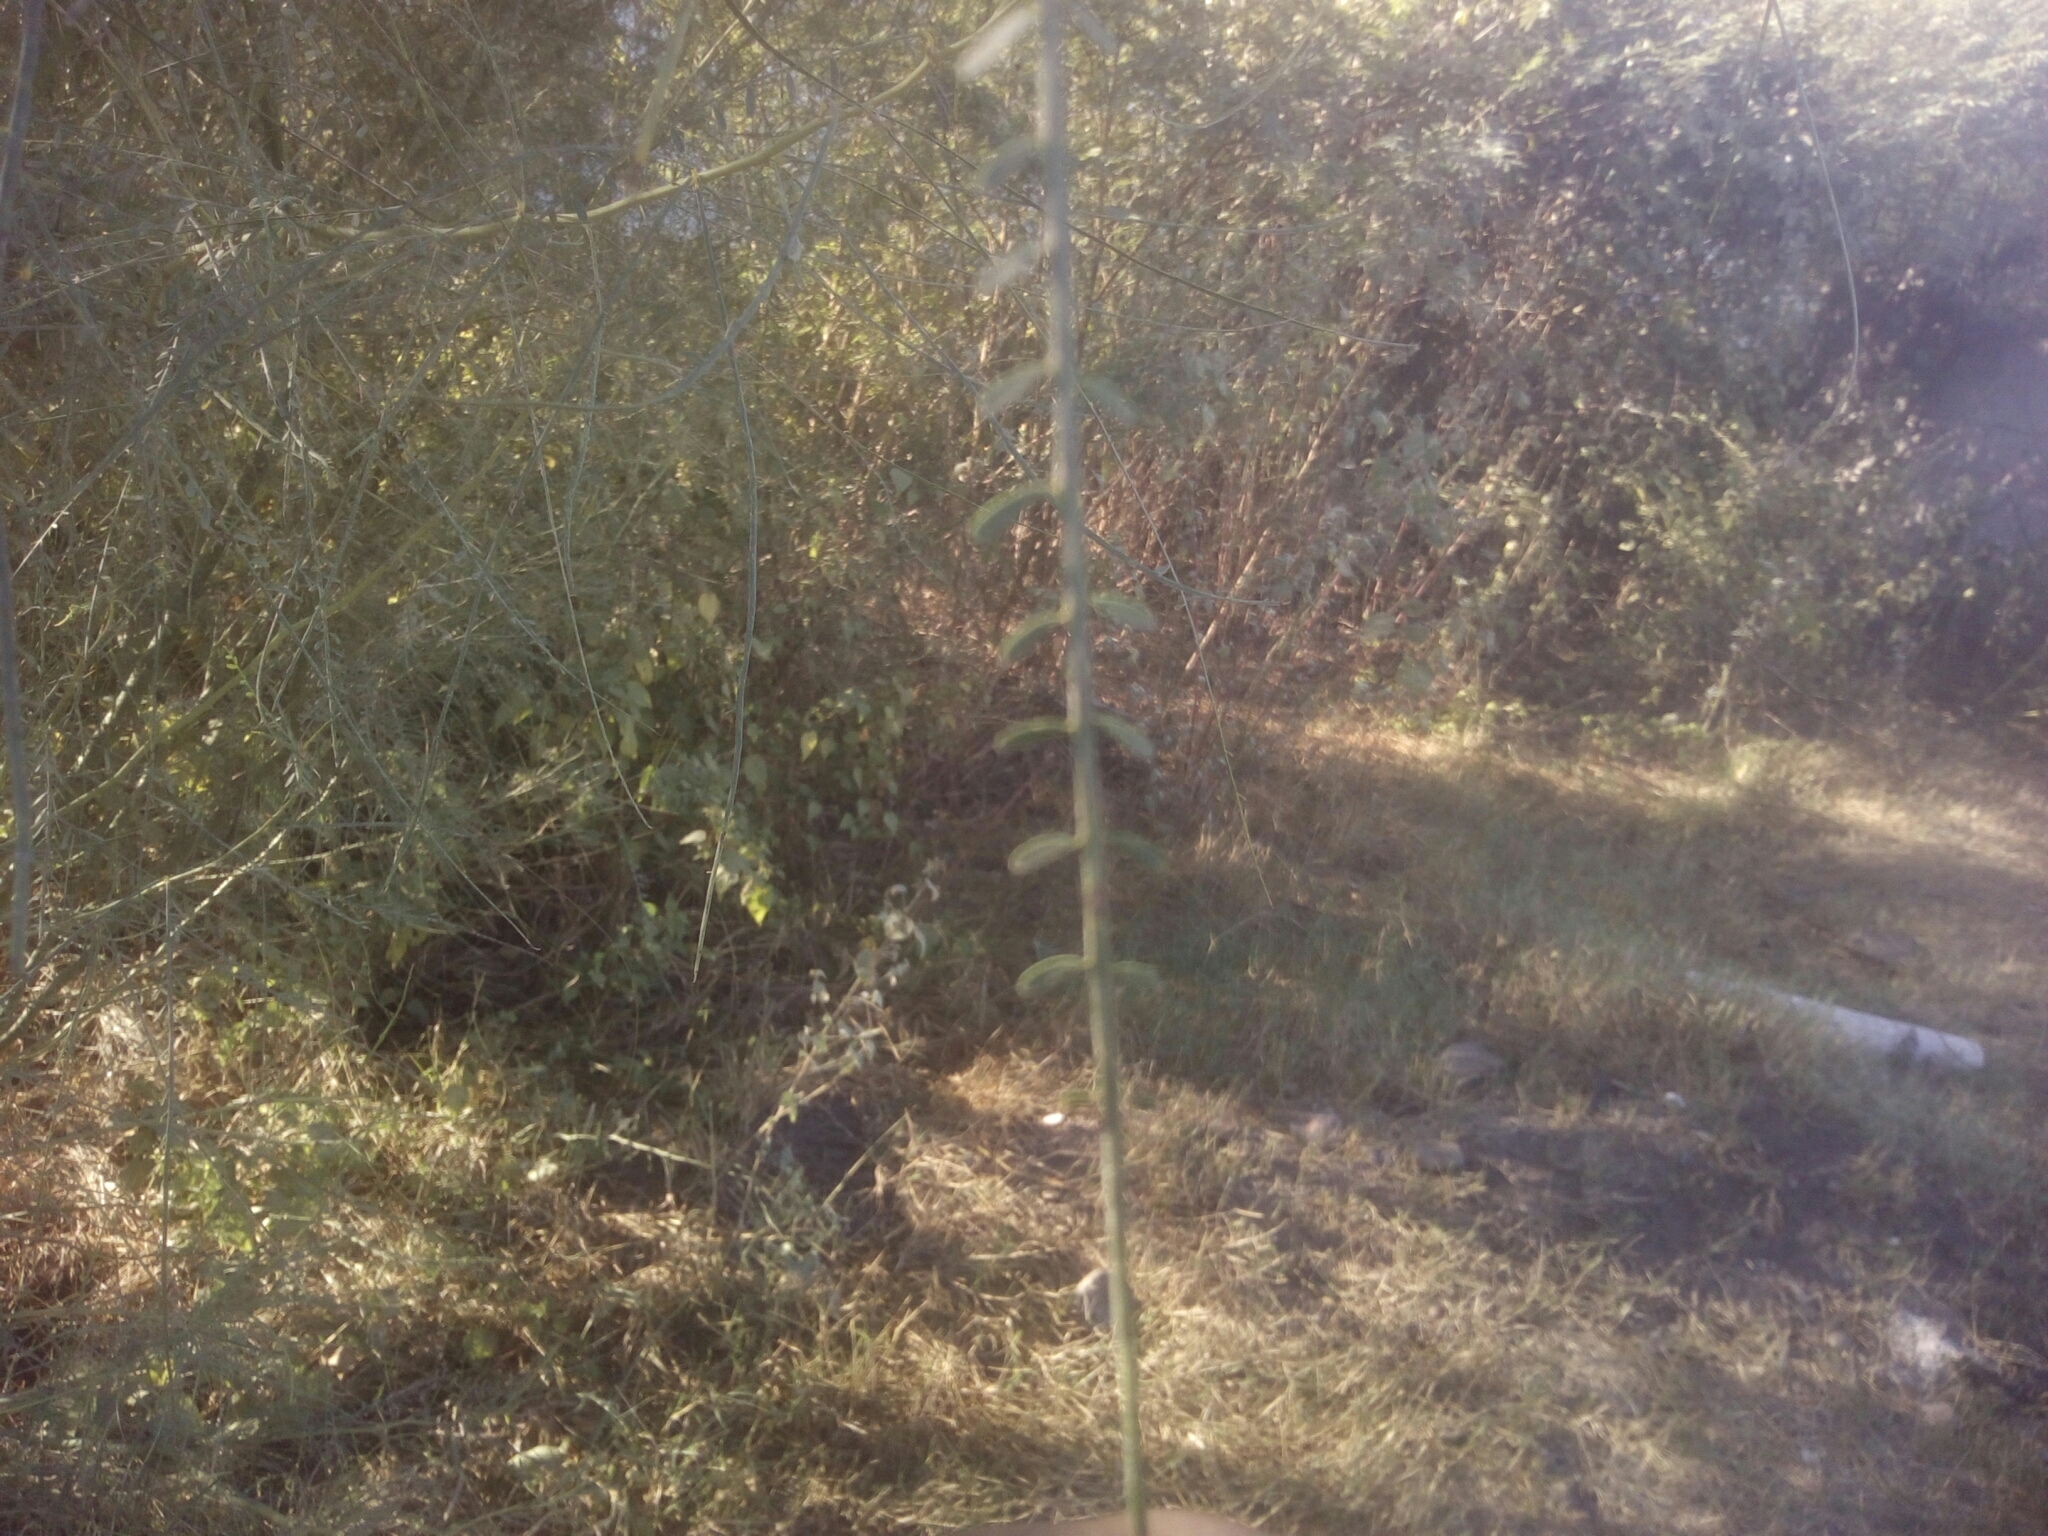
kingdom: Plantae
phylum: Tracheophyta
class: Magnoliopsida
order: Fabales
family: Fabaceae
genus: Parkinsonia
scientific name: Parkinsonia aculeata
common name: Jerusalem thorn
